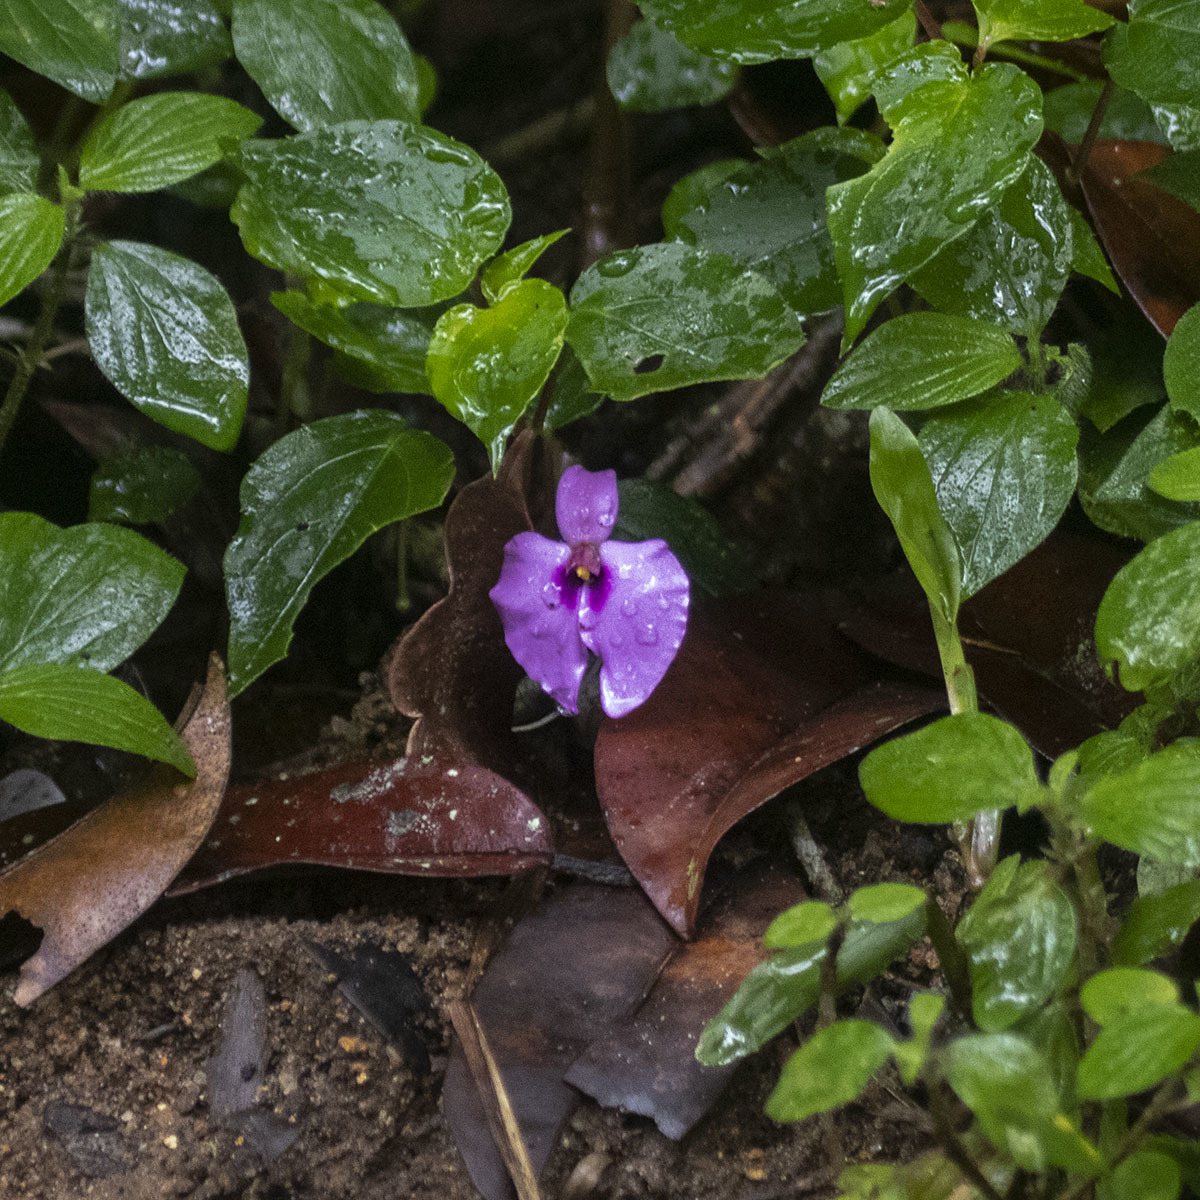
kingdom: Plantae
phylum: Tracheophyta
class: Magnoliopsida
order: Ericales
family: Balsaminaceae
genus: Impatiens
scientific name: Impatiens cordata
